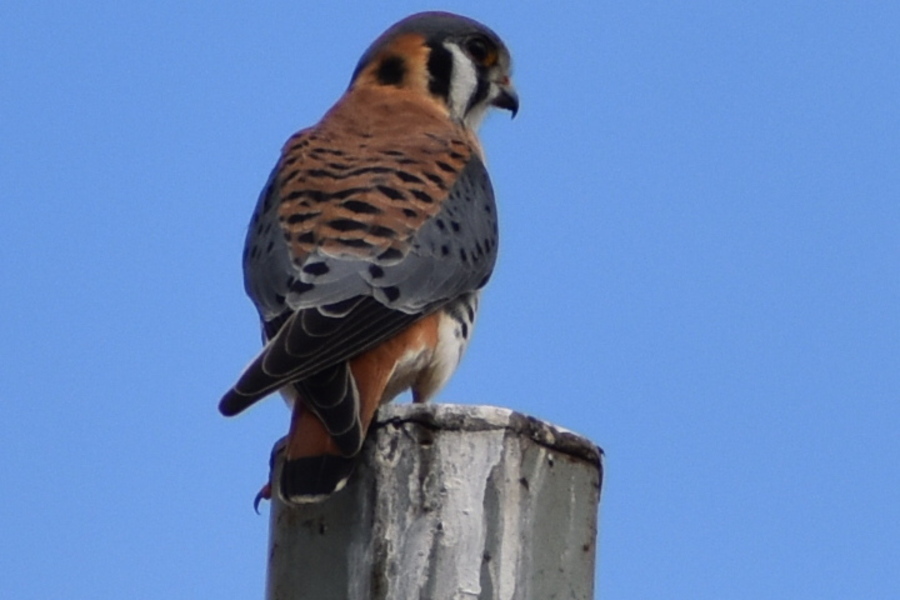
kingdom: Animalia
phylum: Chordata
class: Aves
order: Falconiformes
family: Falconidae
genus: Falco
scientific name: Falco sparverius
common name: American kestrel
